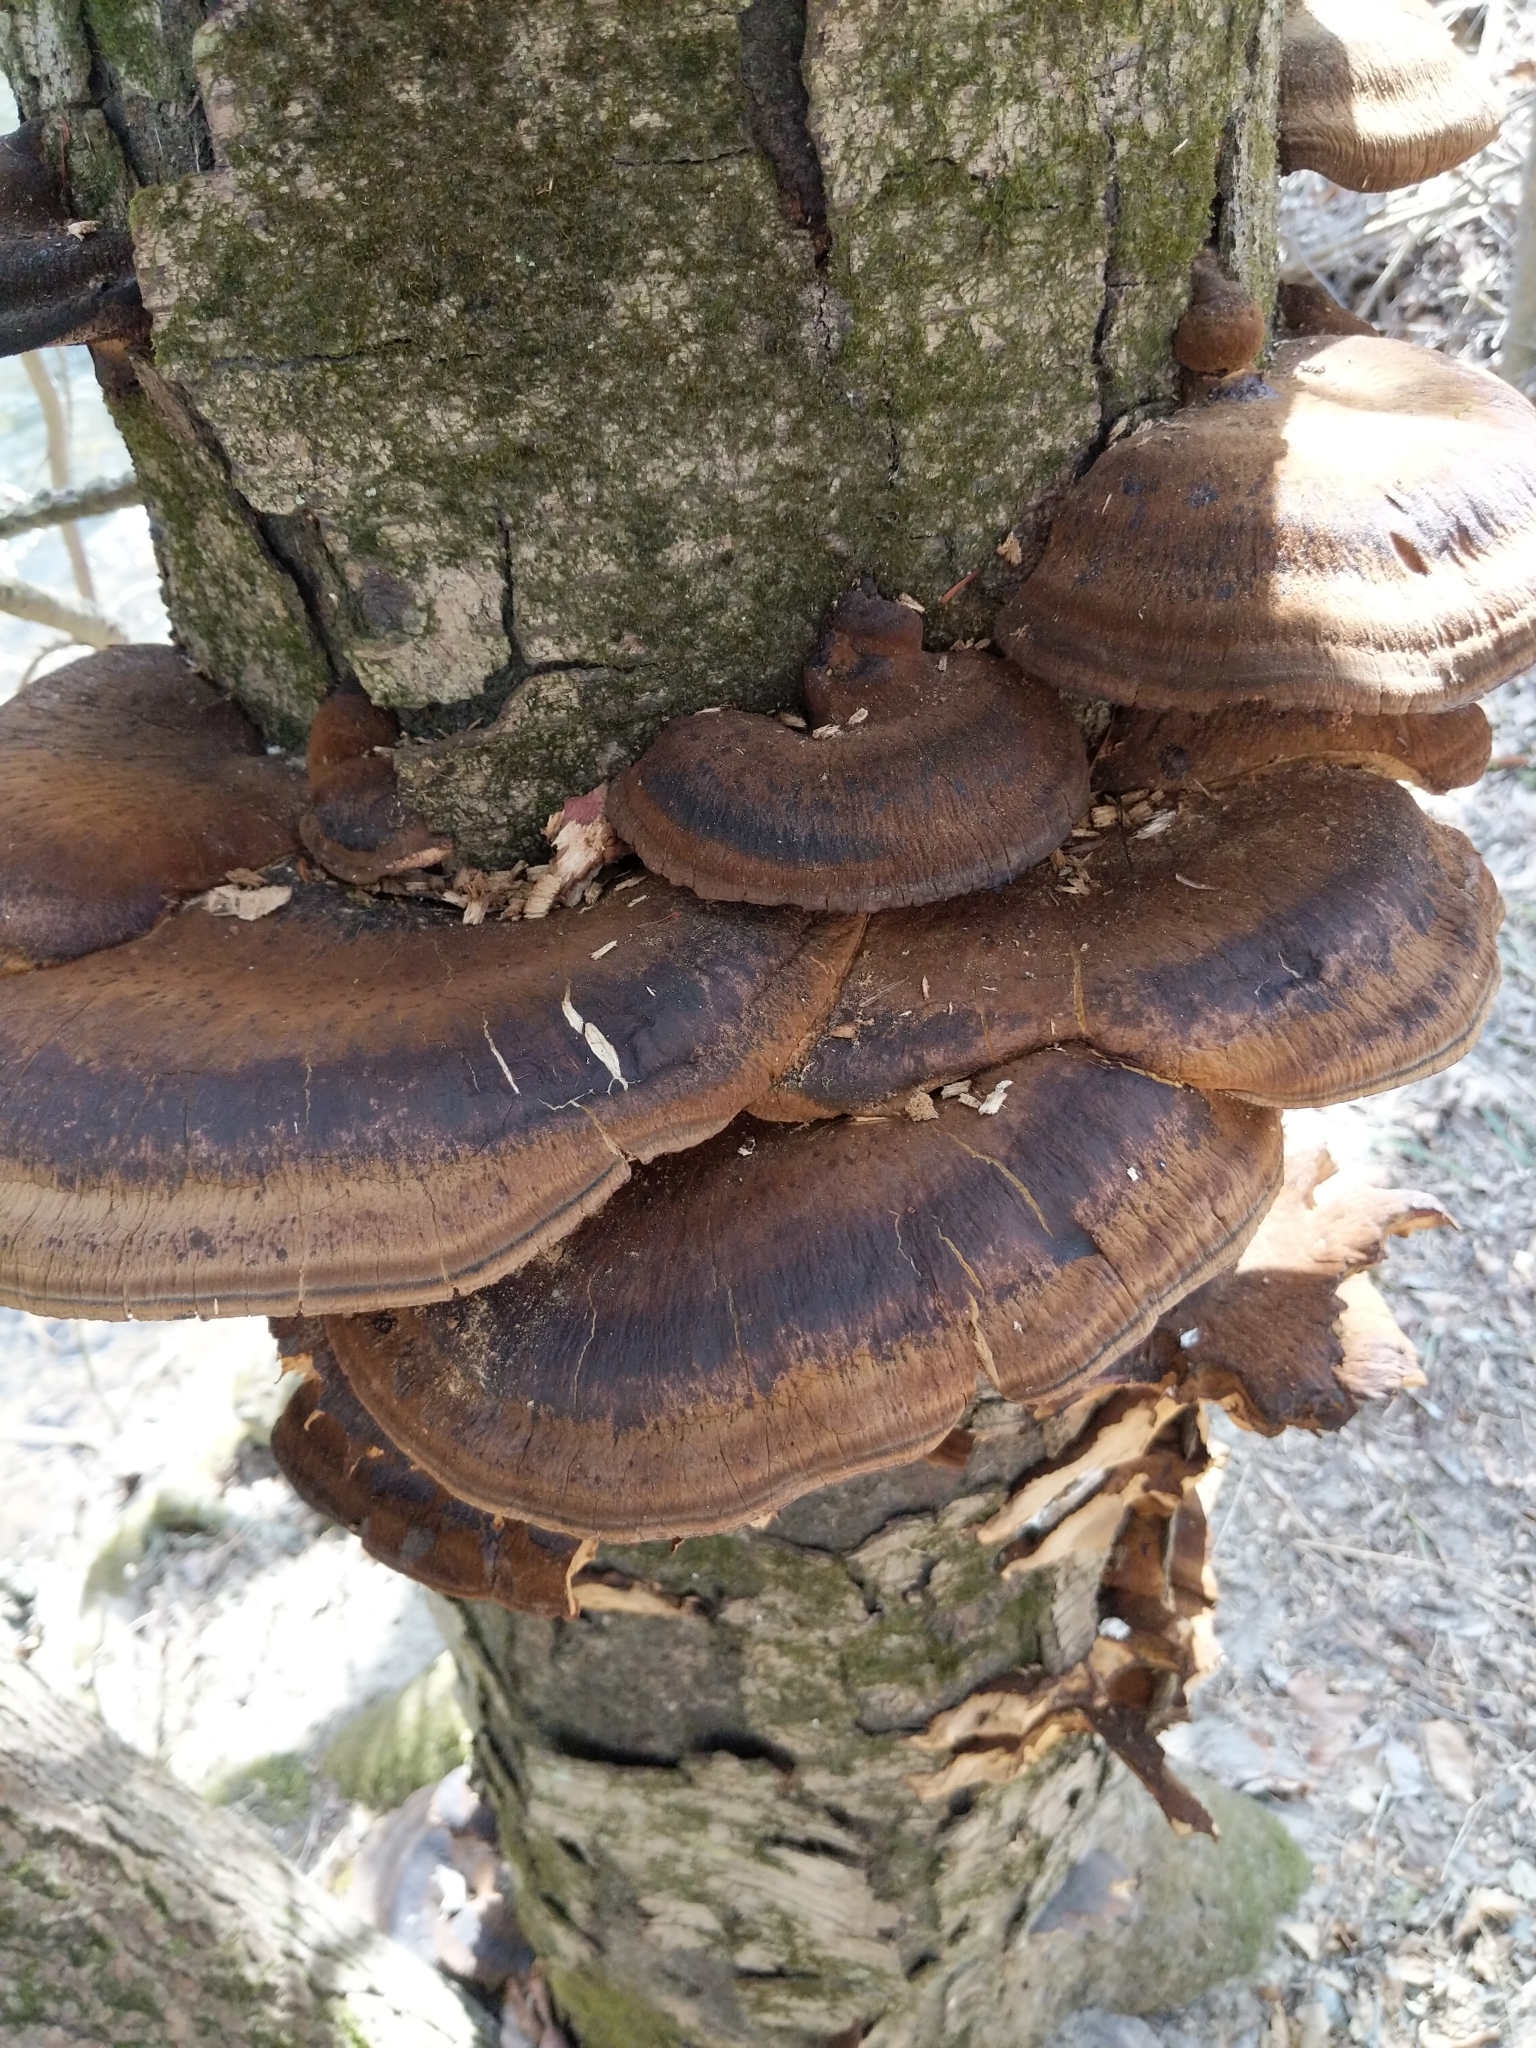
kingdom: Fungi
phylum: Basidiomycota
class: Agaricomycetes
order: Polyporales
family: Ischnodermataceae
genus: Ischnoderma
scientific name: Ischnoderma resinosum
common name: Resinous polypore
